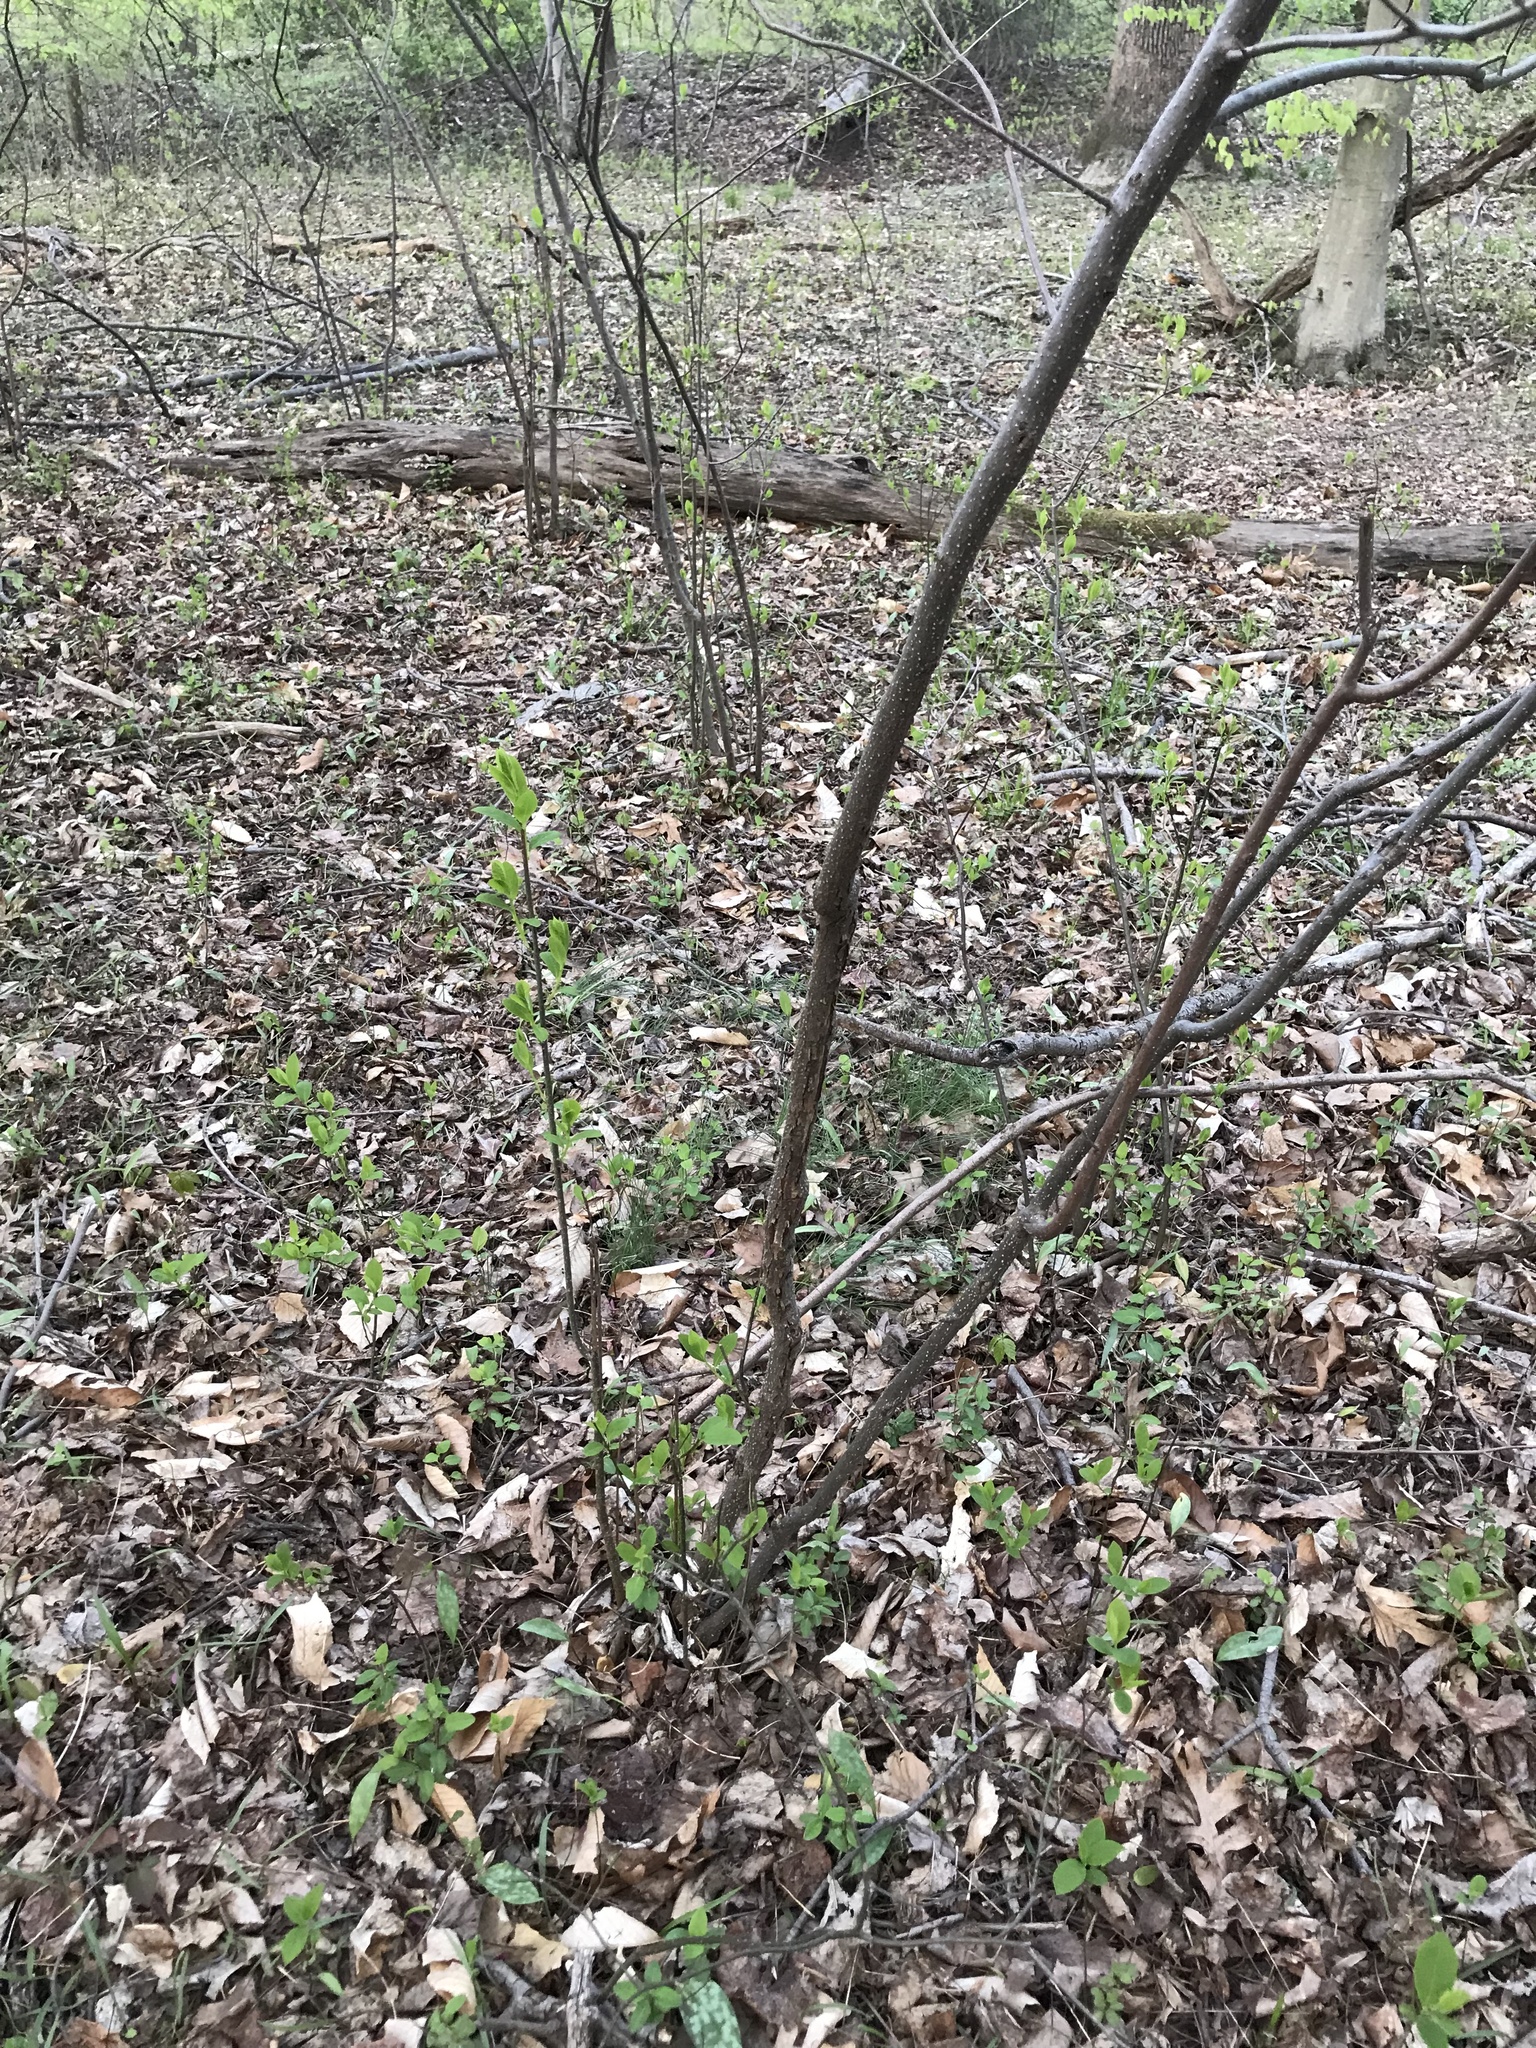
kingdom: Plantae
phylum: Tracheophyta
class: Magnoliopsida
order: Laurales
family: Lauraceae
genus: Lindera
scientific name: Lindera benzoin
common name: Spicebush
